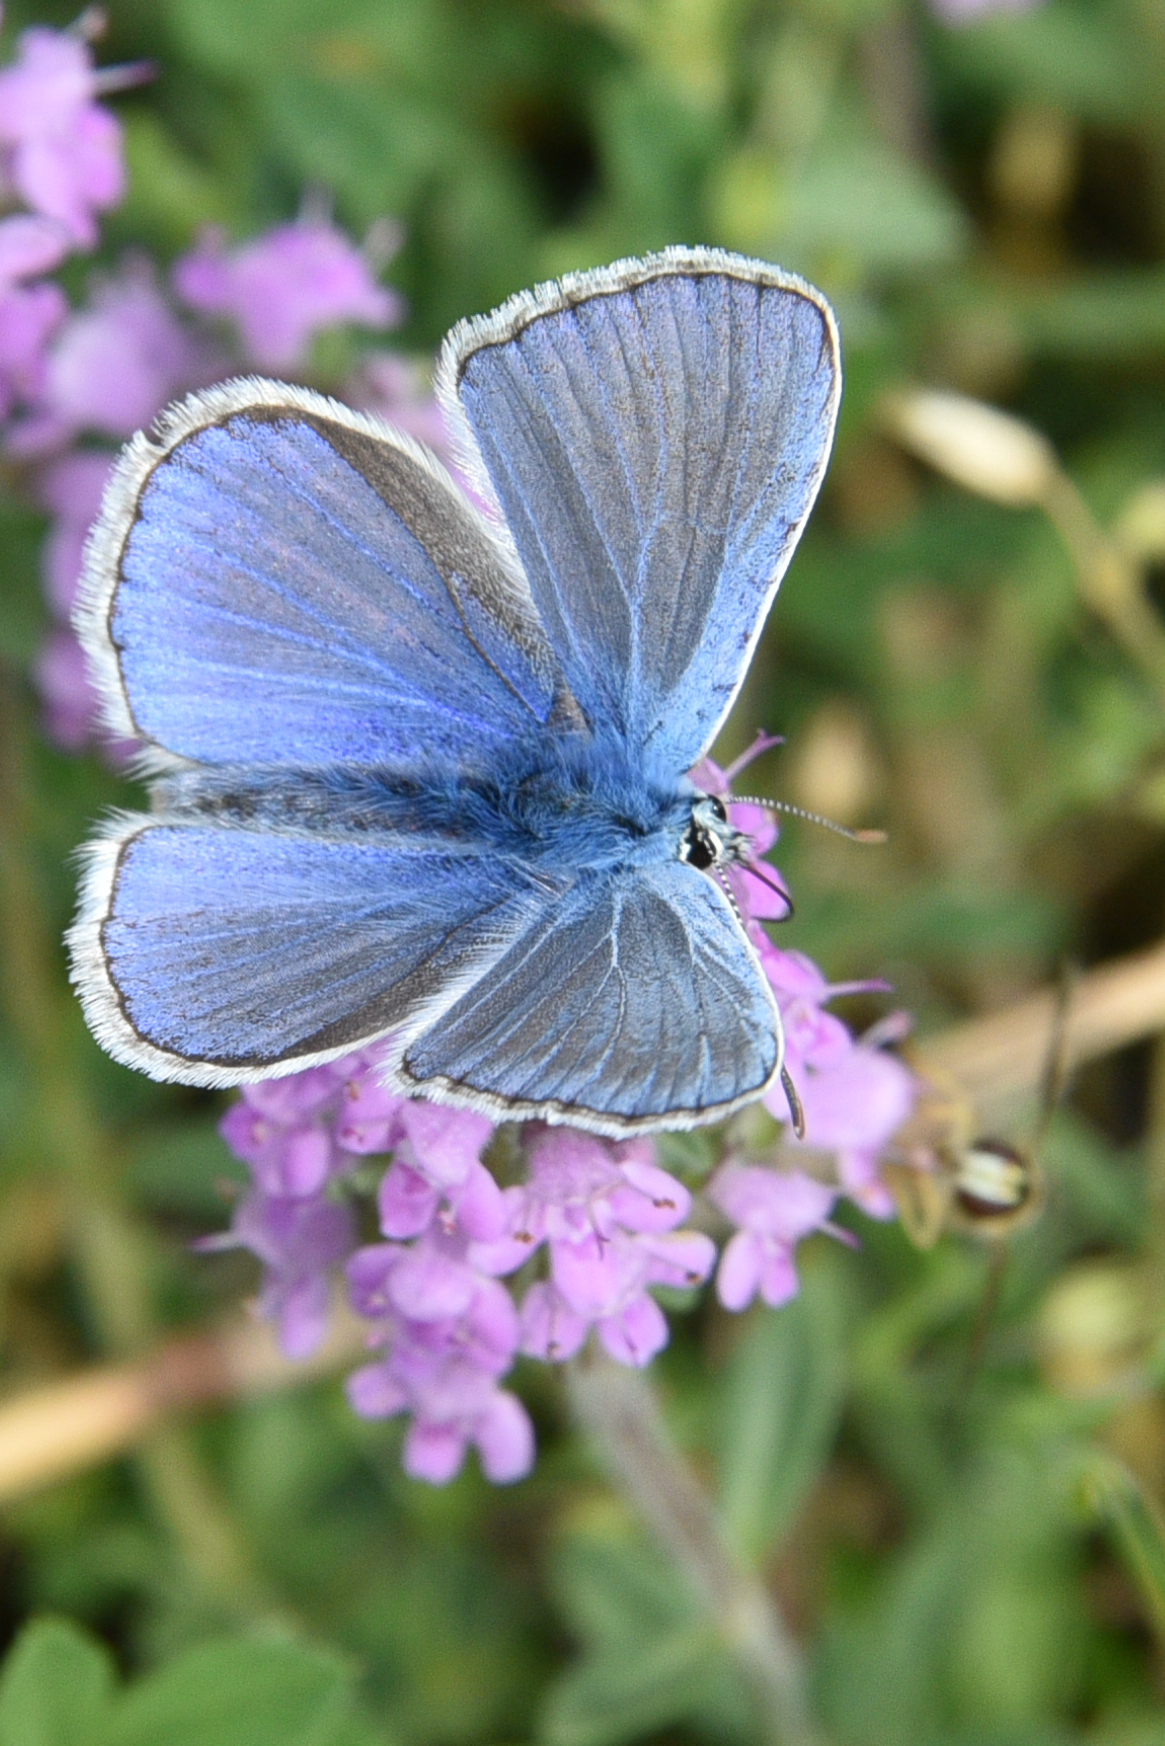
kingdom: Animalia
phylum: Arthropoda
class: Insecta
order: Lepidoptera
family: Lycaenidae
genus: Polyommatus
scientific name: Polyommatus icarus
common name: Common blue
